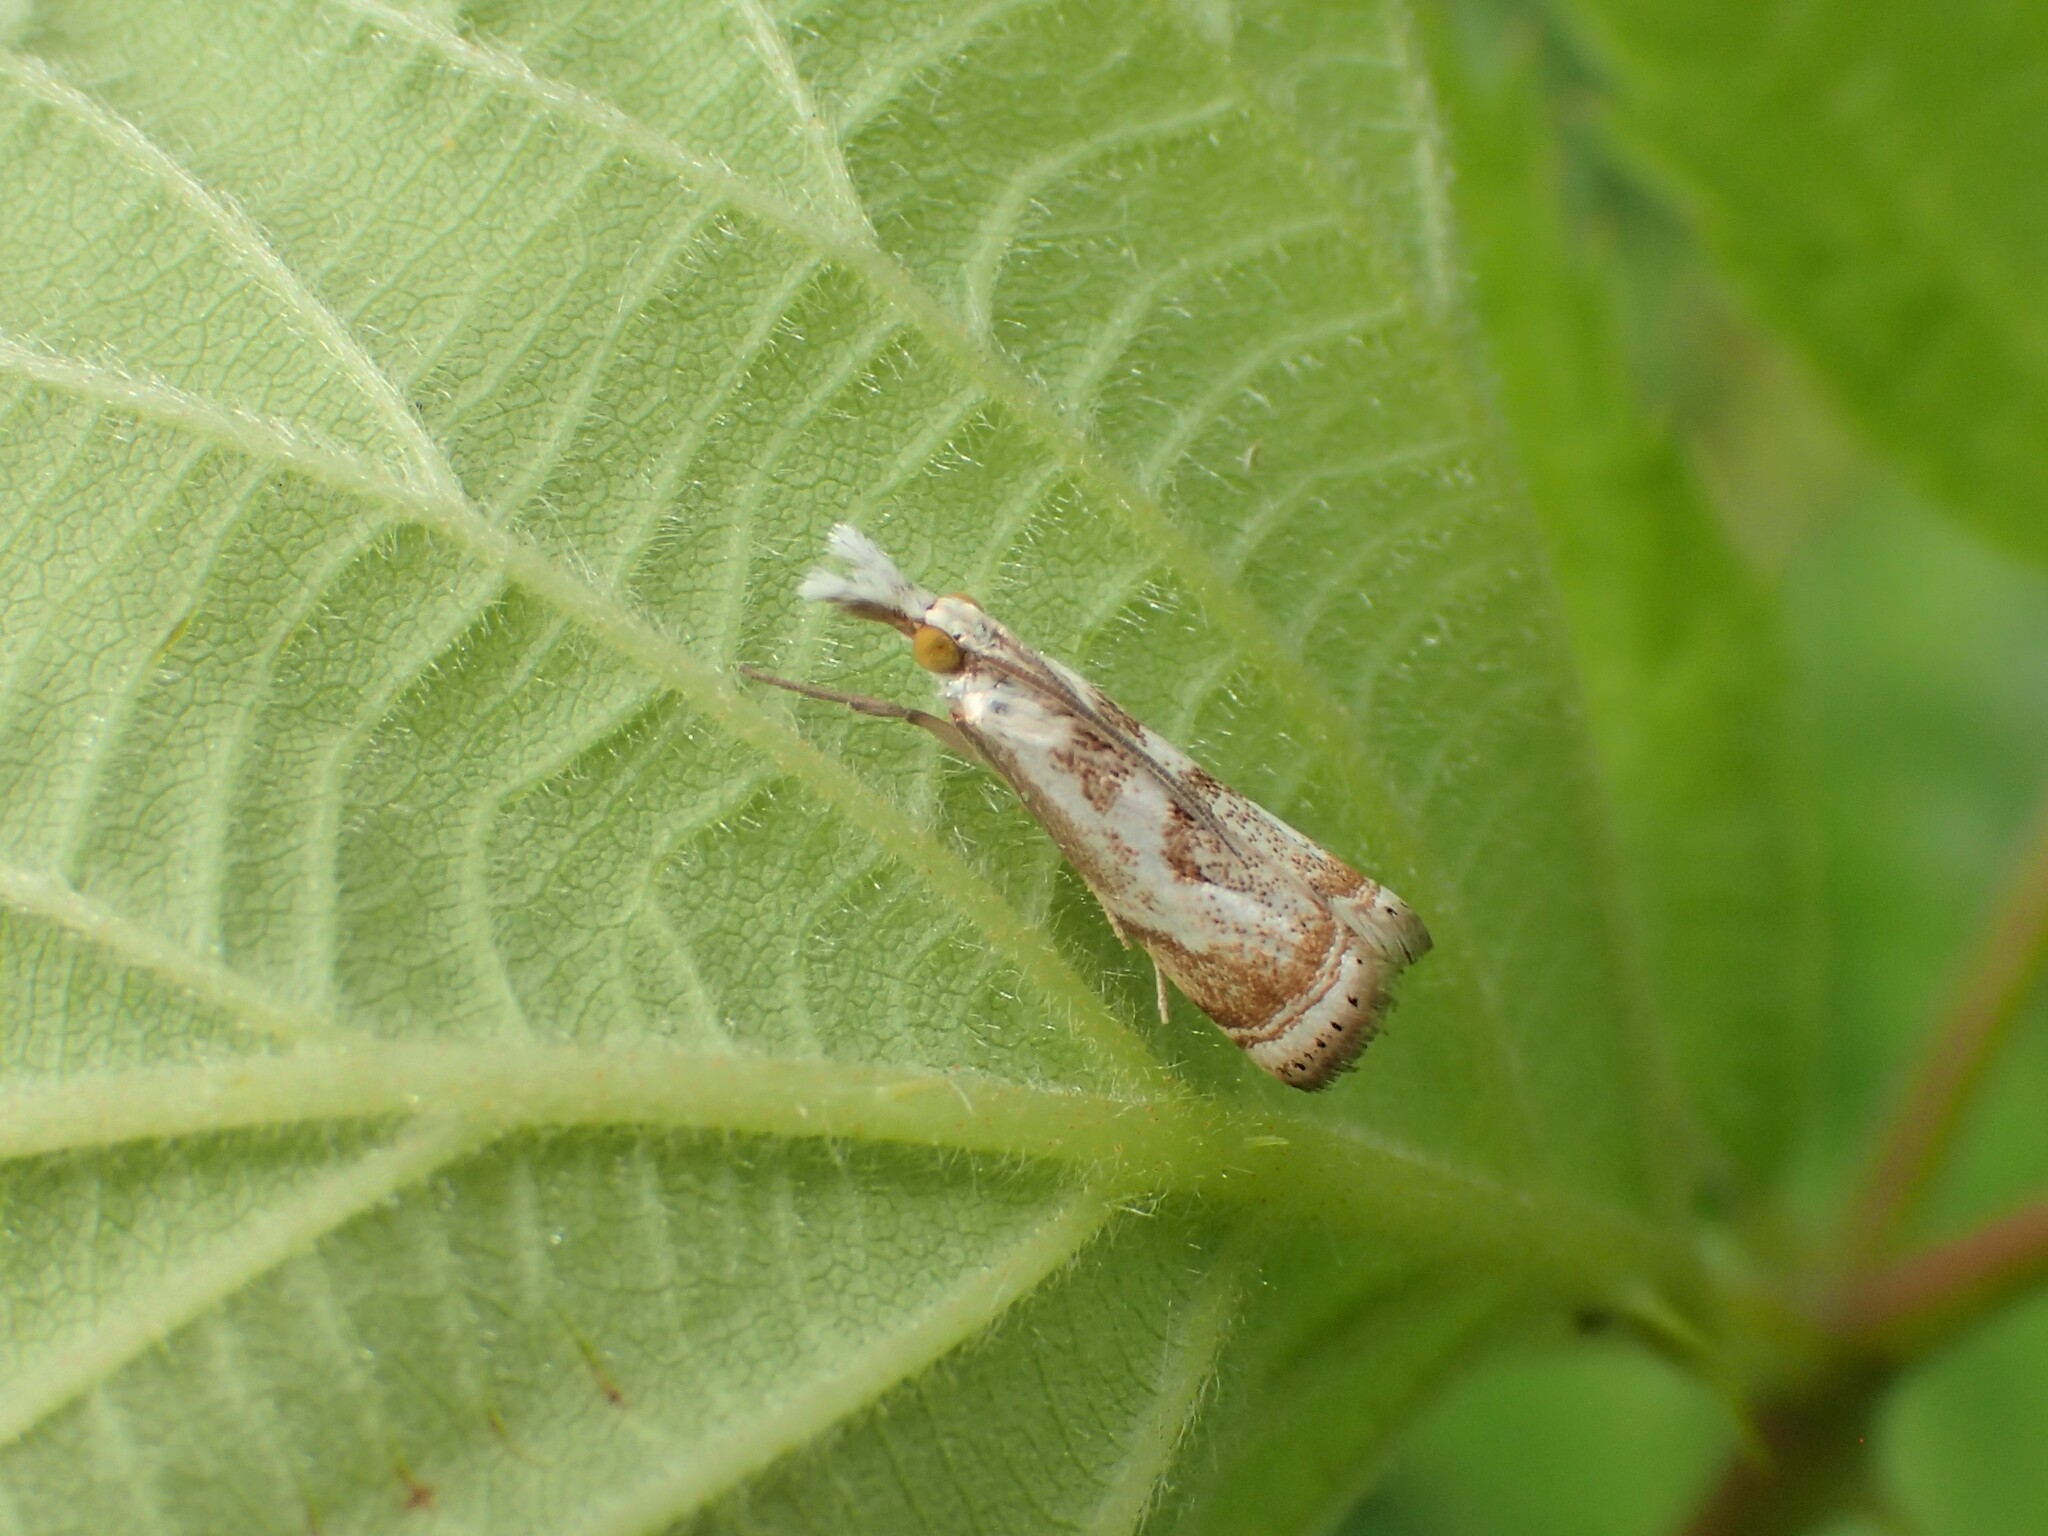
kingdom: Animalia
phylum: Arthropoda
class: Insecta
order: Lepidoptera
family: Crambidae
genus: Microcrambus
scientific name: Microcrambus elegans
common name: Elegant grass-veneer
